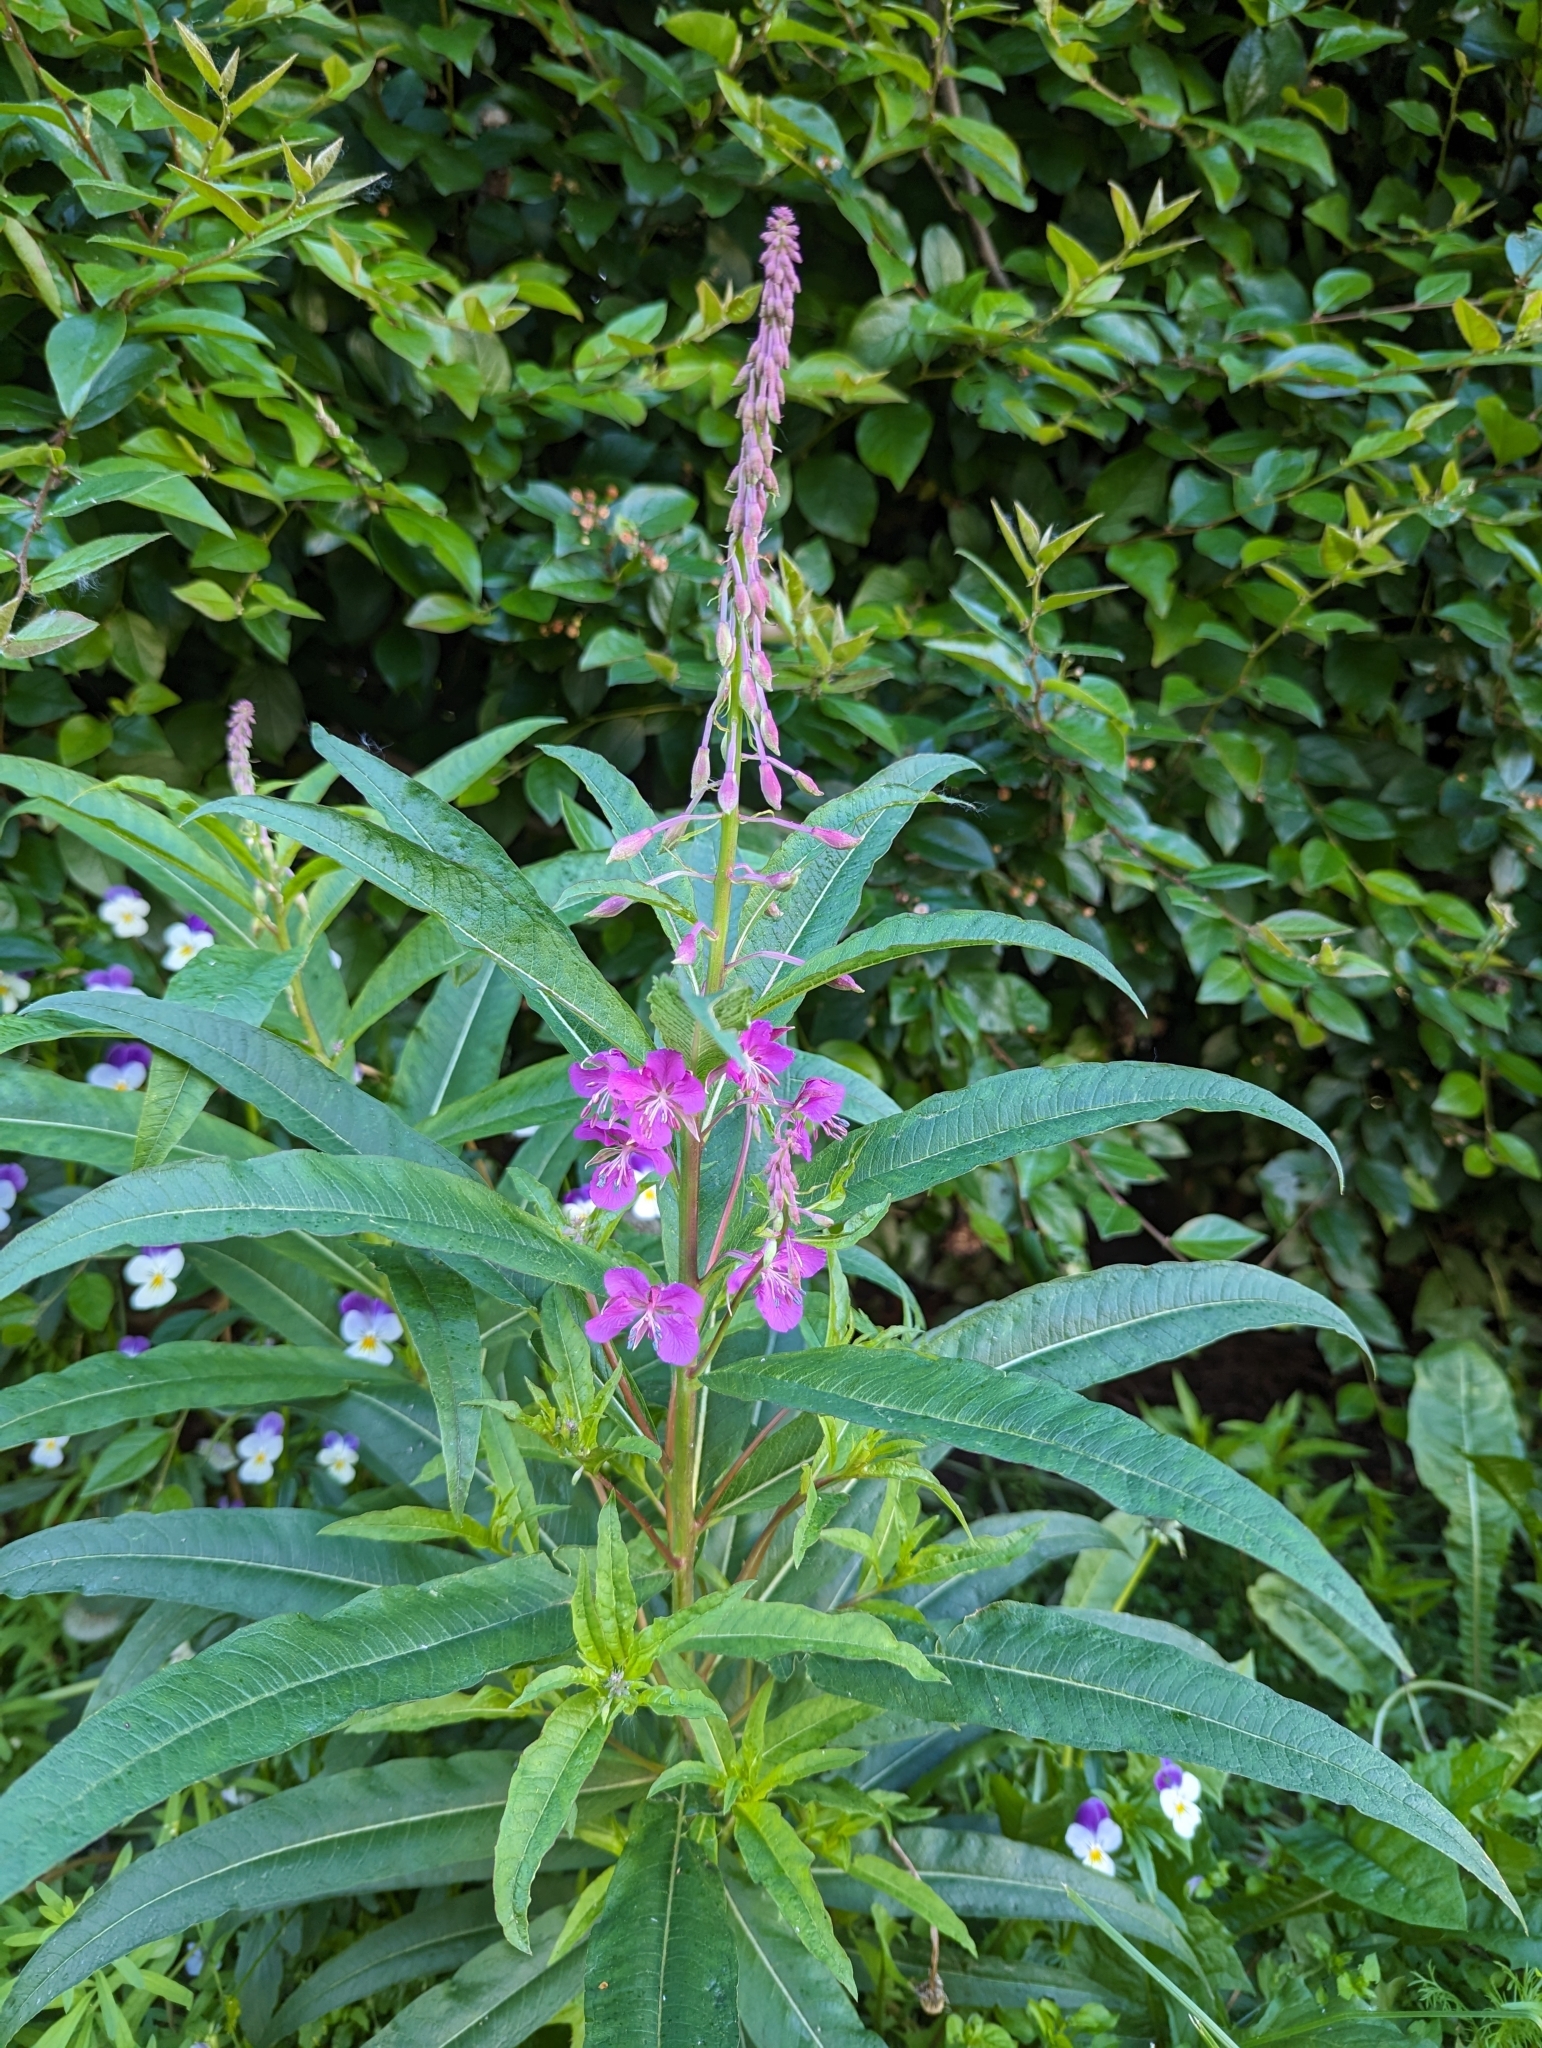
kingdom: Plantae
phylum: Tracheophyta
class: Magnoliopsida
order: Myrtales
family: Onagraceae
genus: Chamaenerion
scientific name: Chamaenerion angustifolium
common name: Fireweed
